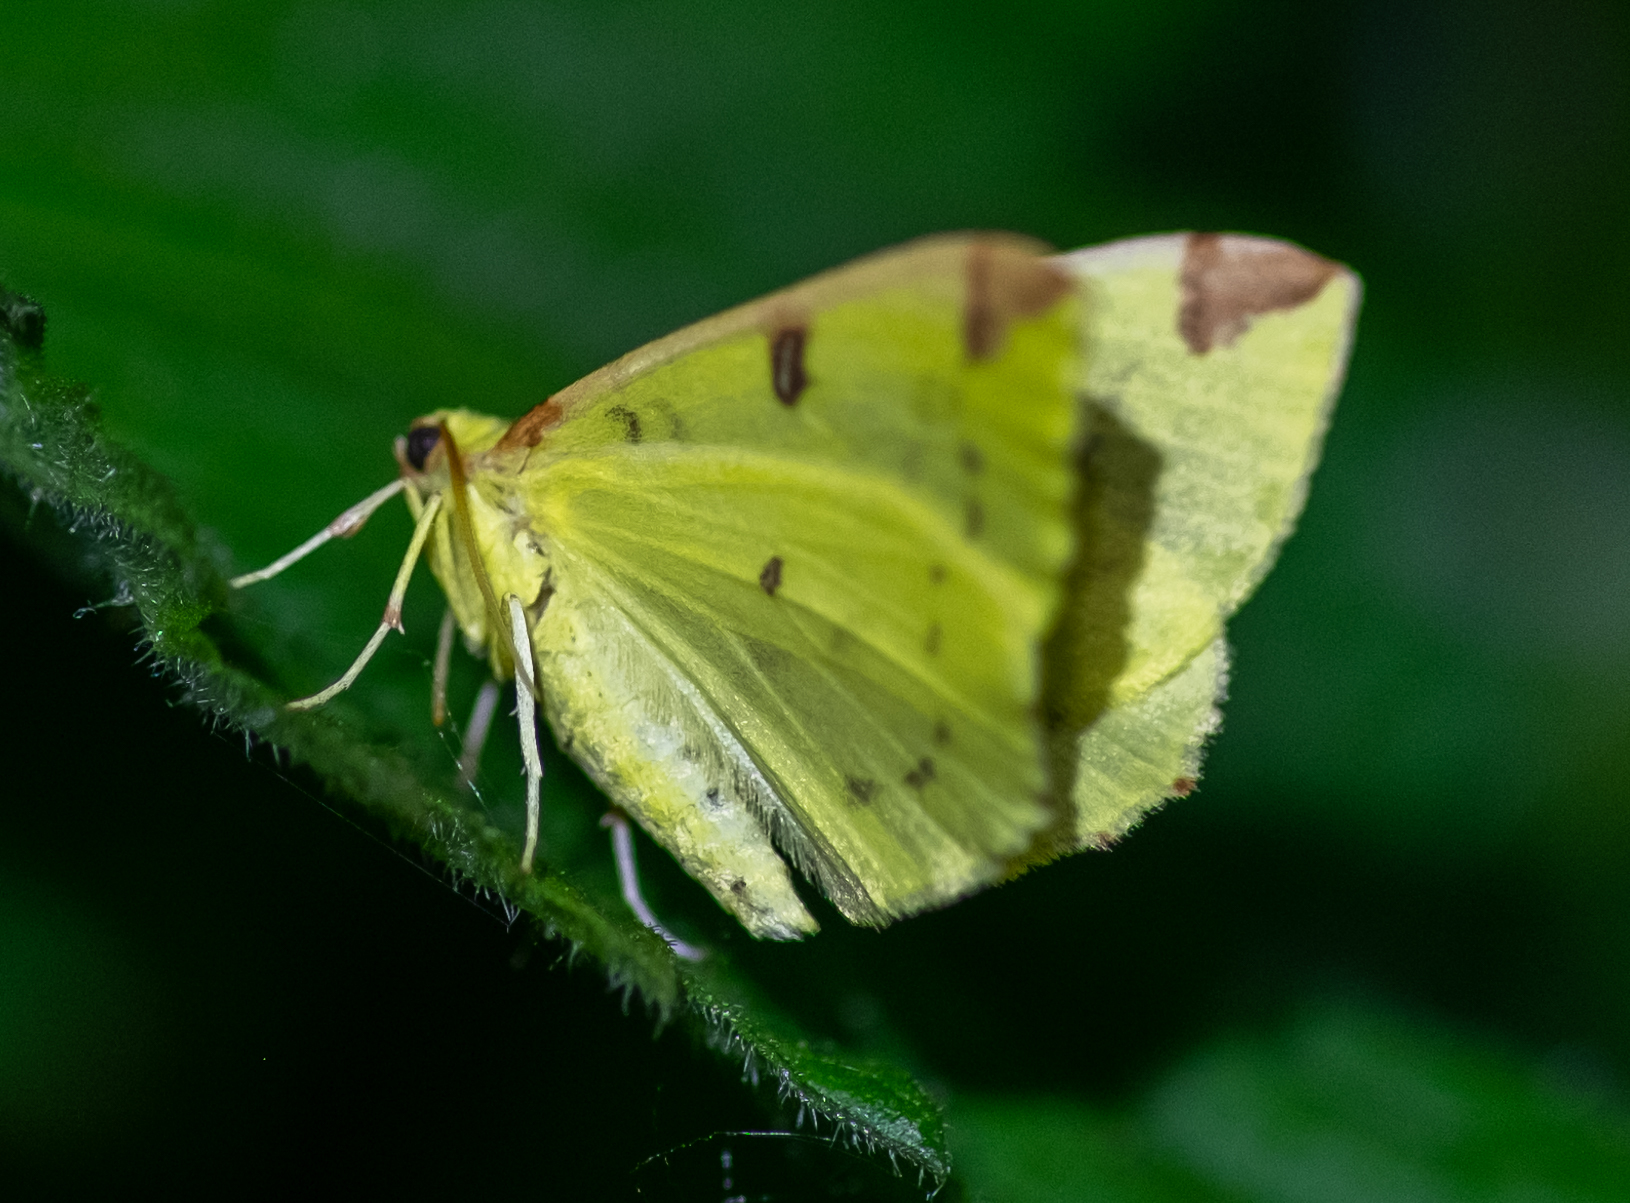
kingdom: Animalia
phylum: Arthropoda
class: Insecta
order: Lepidoptera
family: Geometridae
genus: Opisthograptis
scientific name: Opisthograptis luteolata
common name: Brimstone moth
